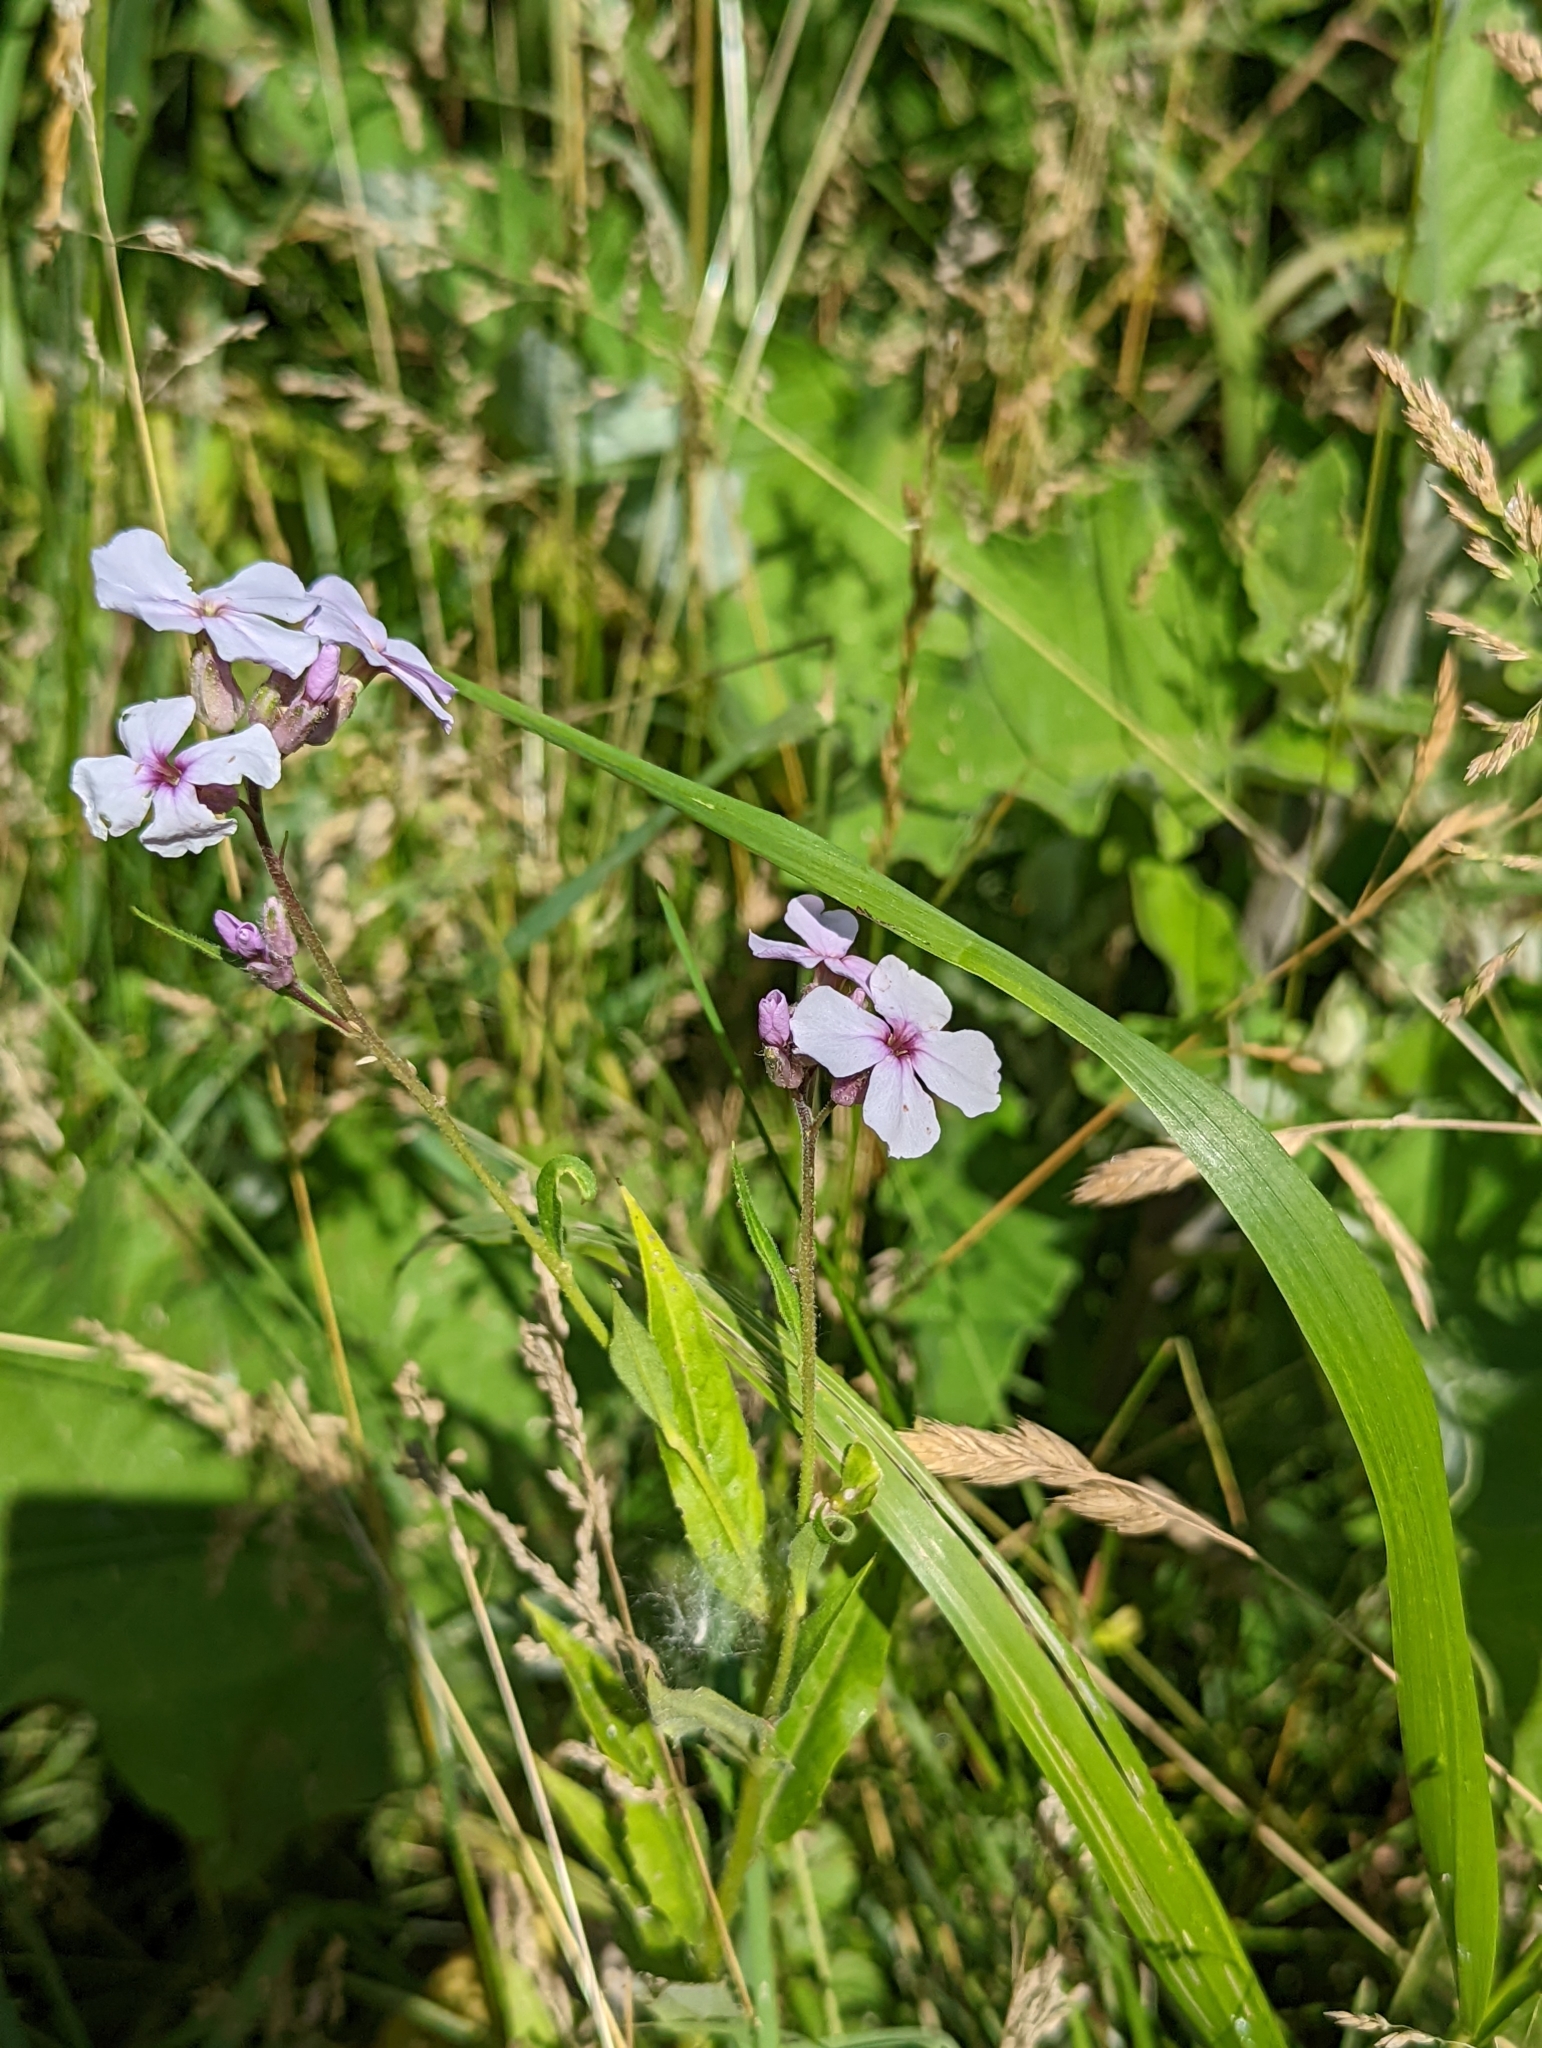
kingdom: Plantae
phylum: Tracheophyta
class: Magnoliopsida
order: Brassicales
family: Brassicaceae
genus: Hesperis
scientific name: Hesperis matronalis
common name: Dame's-violet
